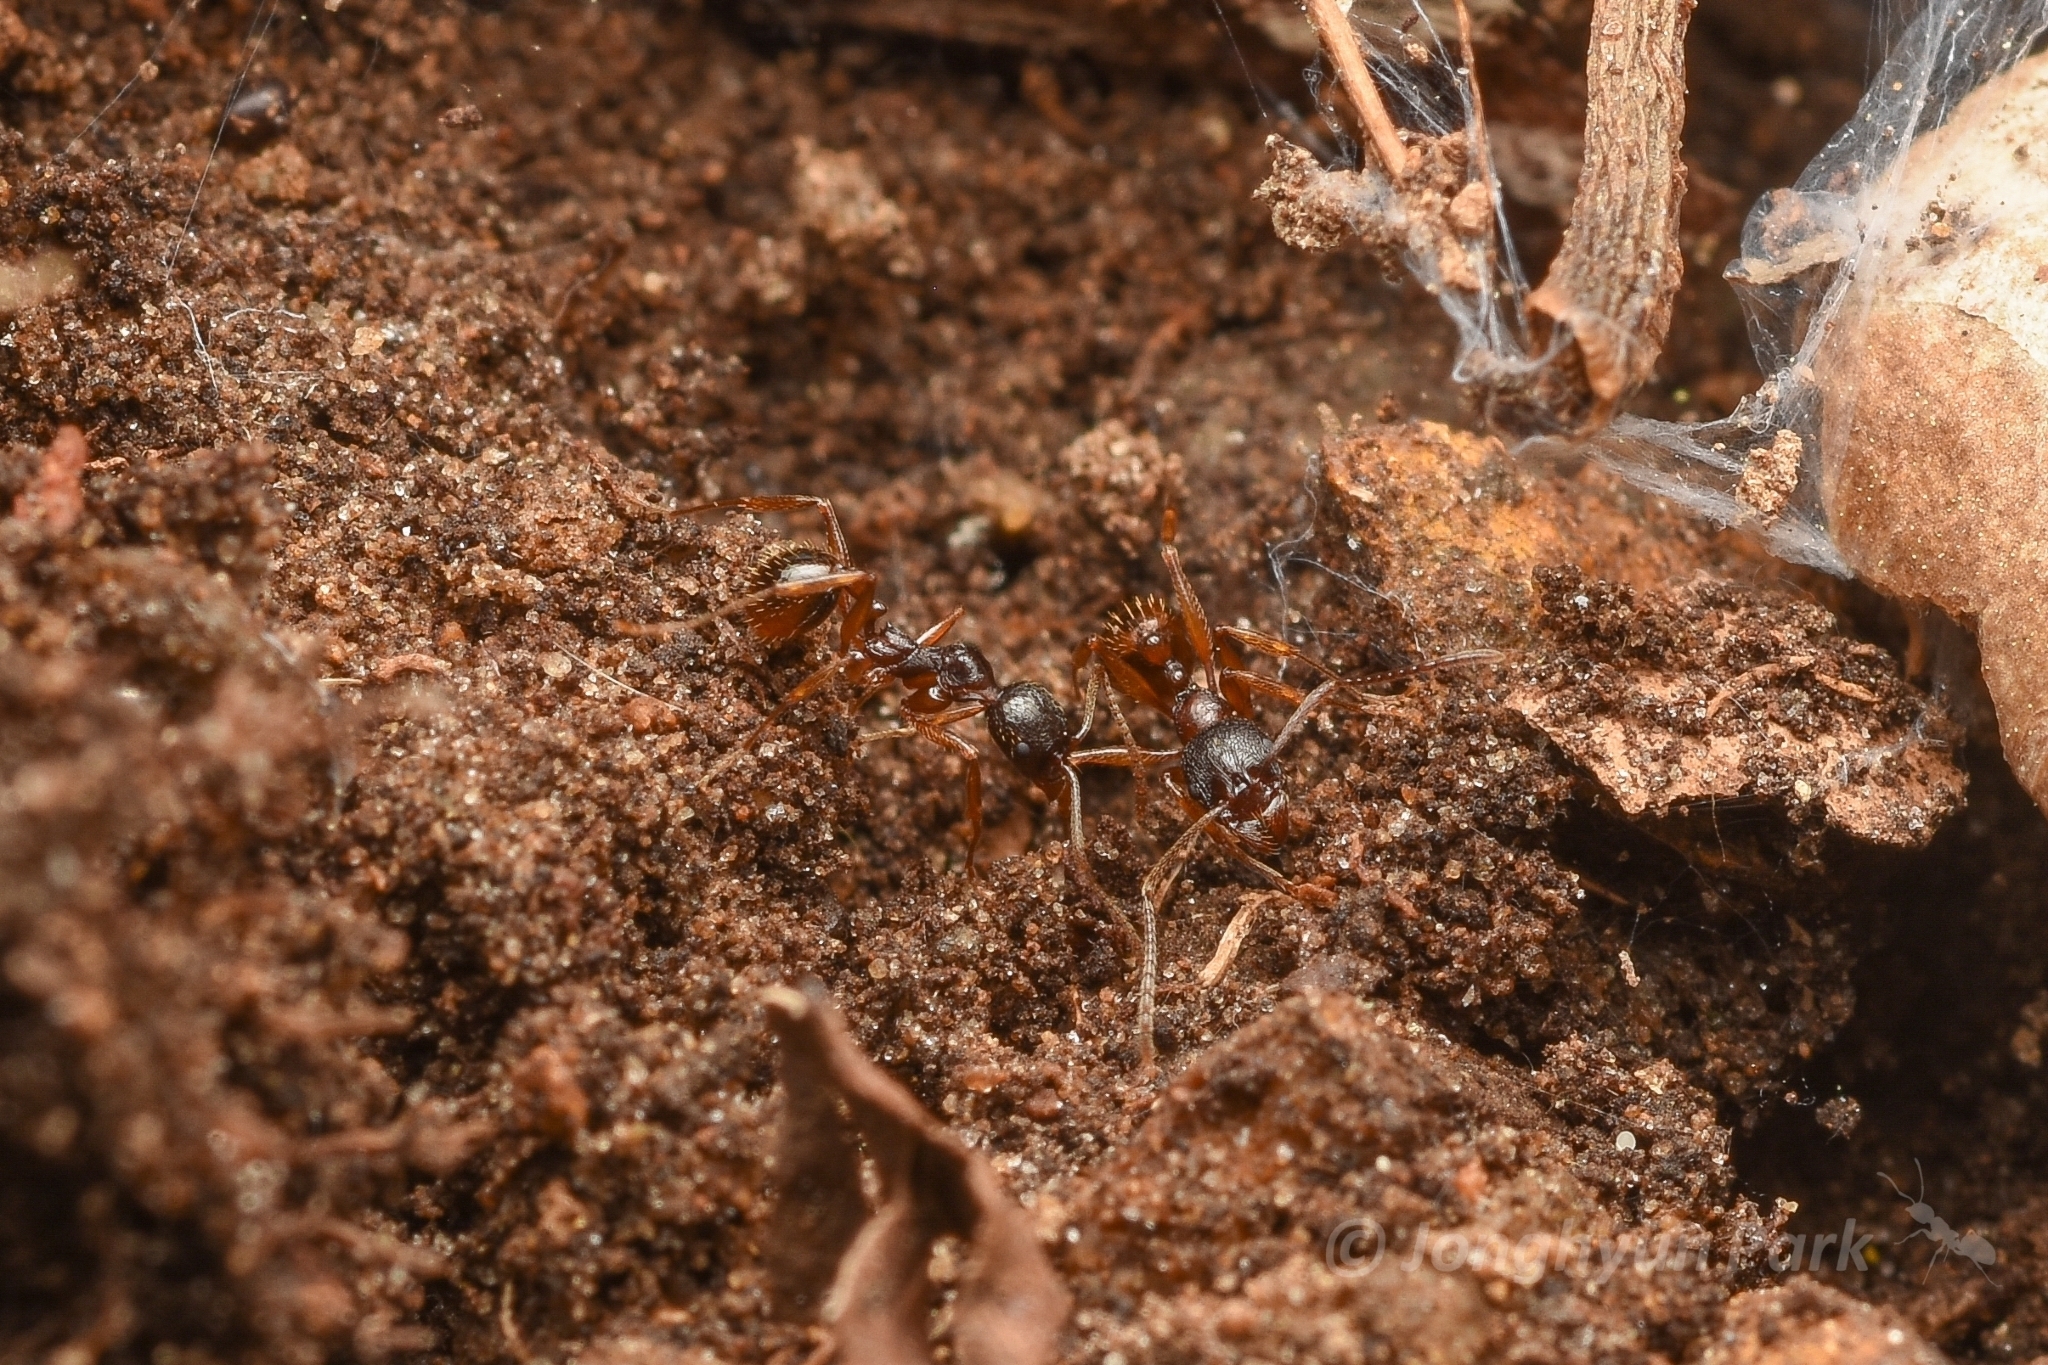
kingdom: Animalia
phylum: Arthropoda
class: Insecta
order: Hymenoptera
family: Formicidae
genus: Aphaenogaster
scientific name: Aphaenogaster japonica
